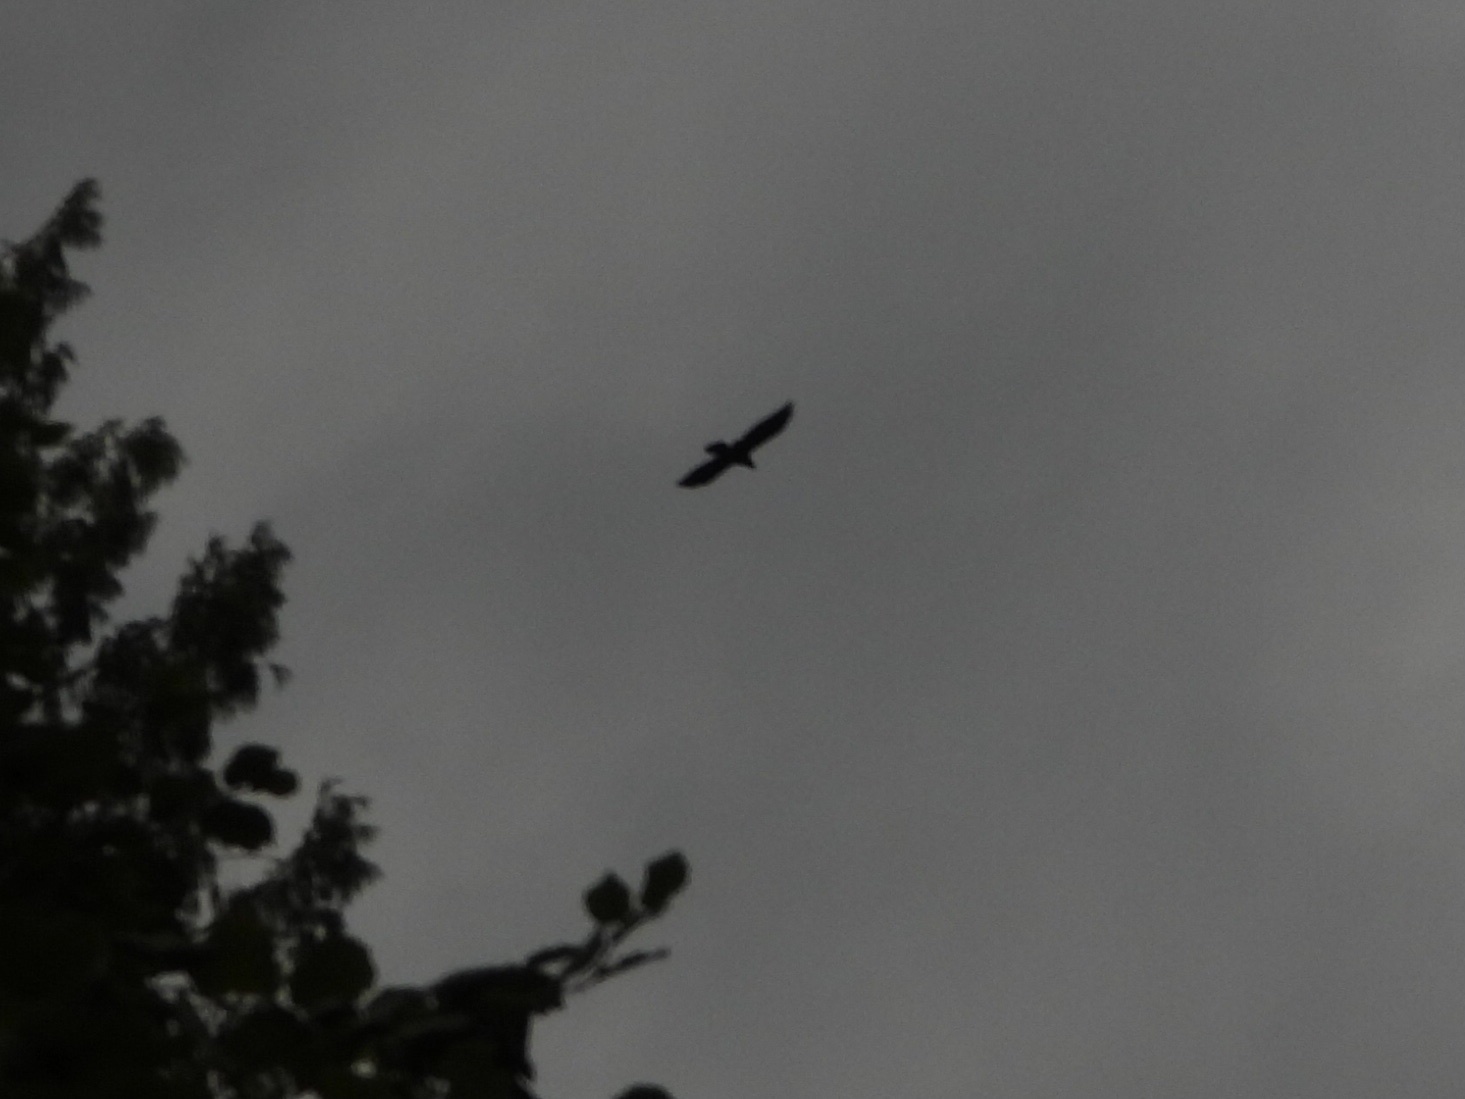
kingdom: Animalia
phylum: Chordata
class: Aves
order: Passeriformes
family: Corvidae
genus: Corvus
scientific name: Corvus corax
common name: Common raven
